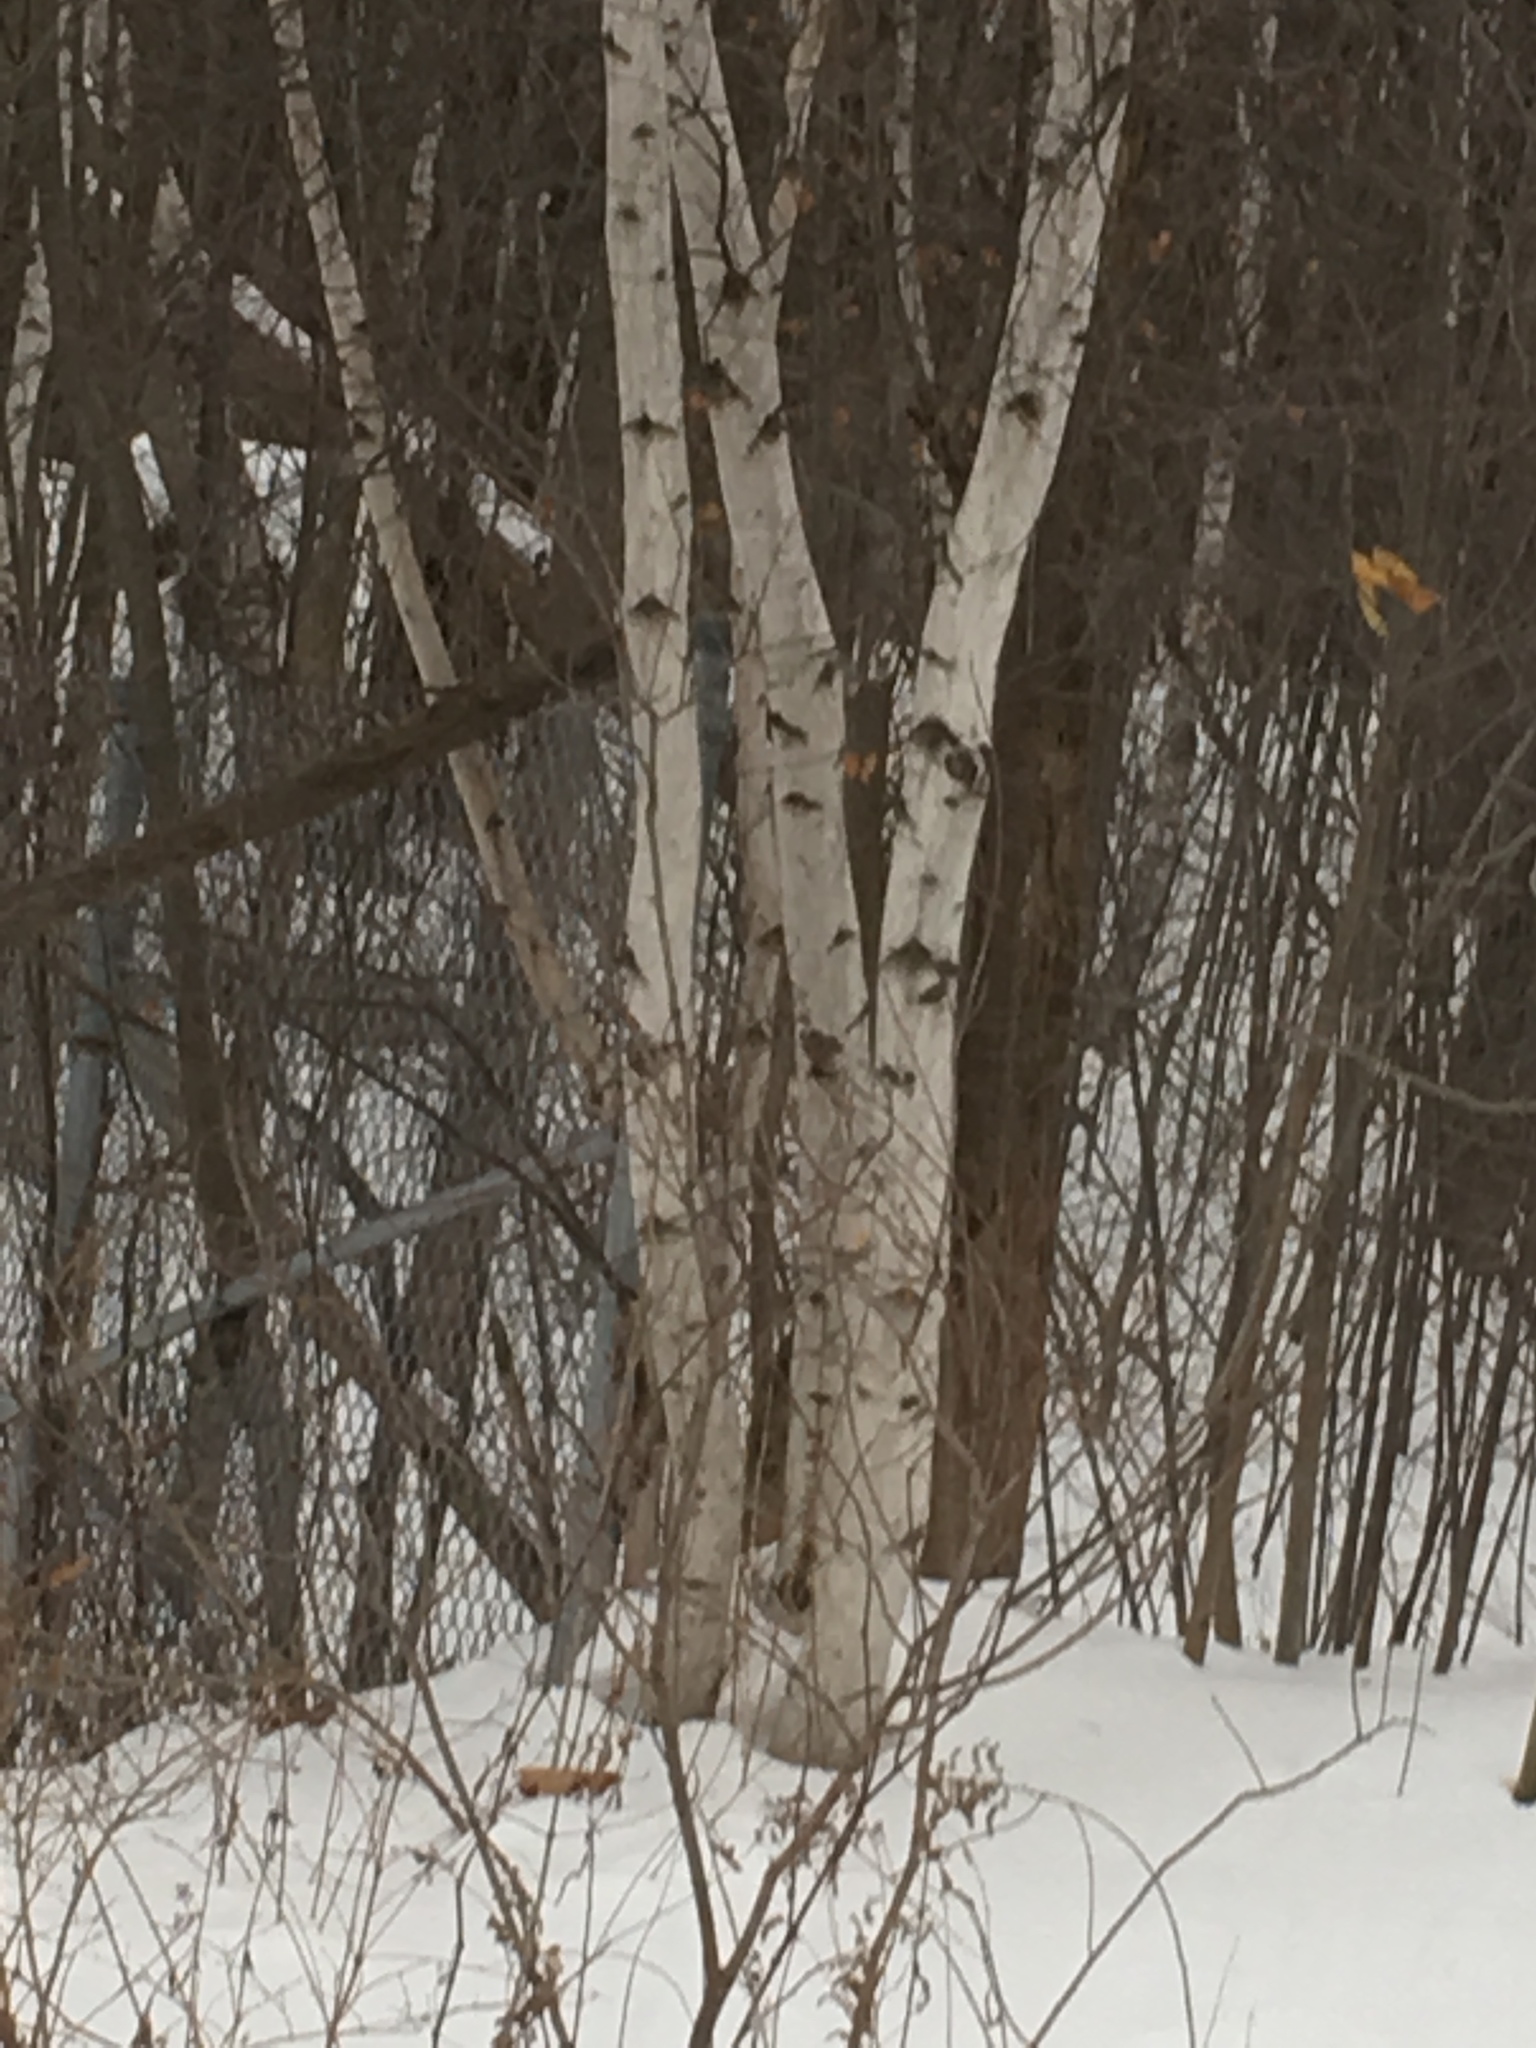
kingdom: Plantae
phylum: Tracheophyta
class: Magnoliopsida
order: Fagales
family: Betulaceae
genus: Betula
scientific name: Betula populifolia
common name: Fire birch
